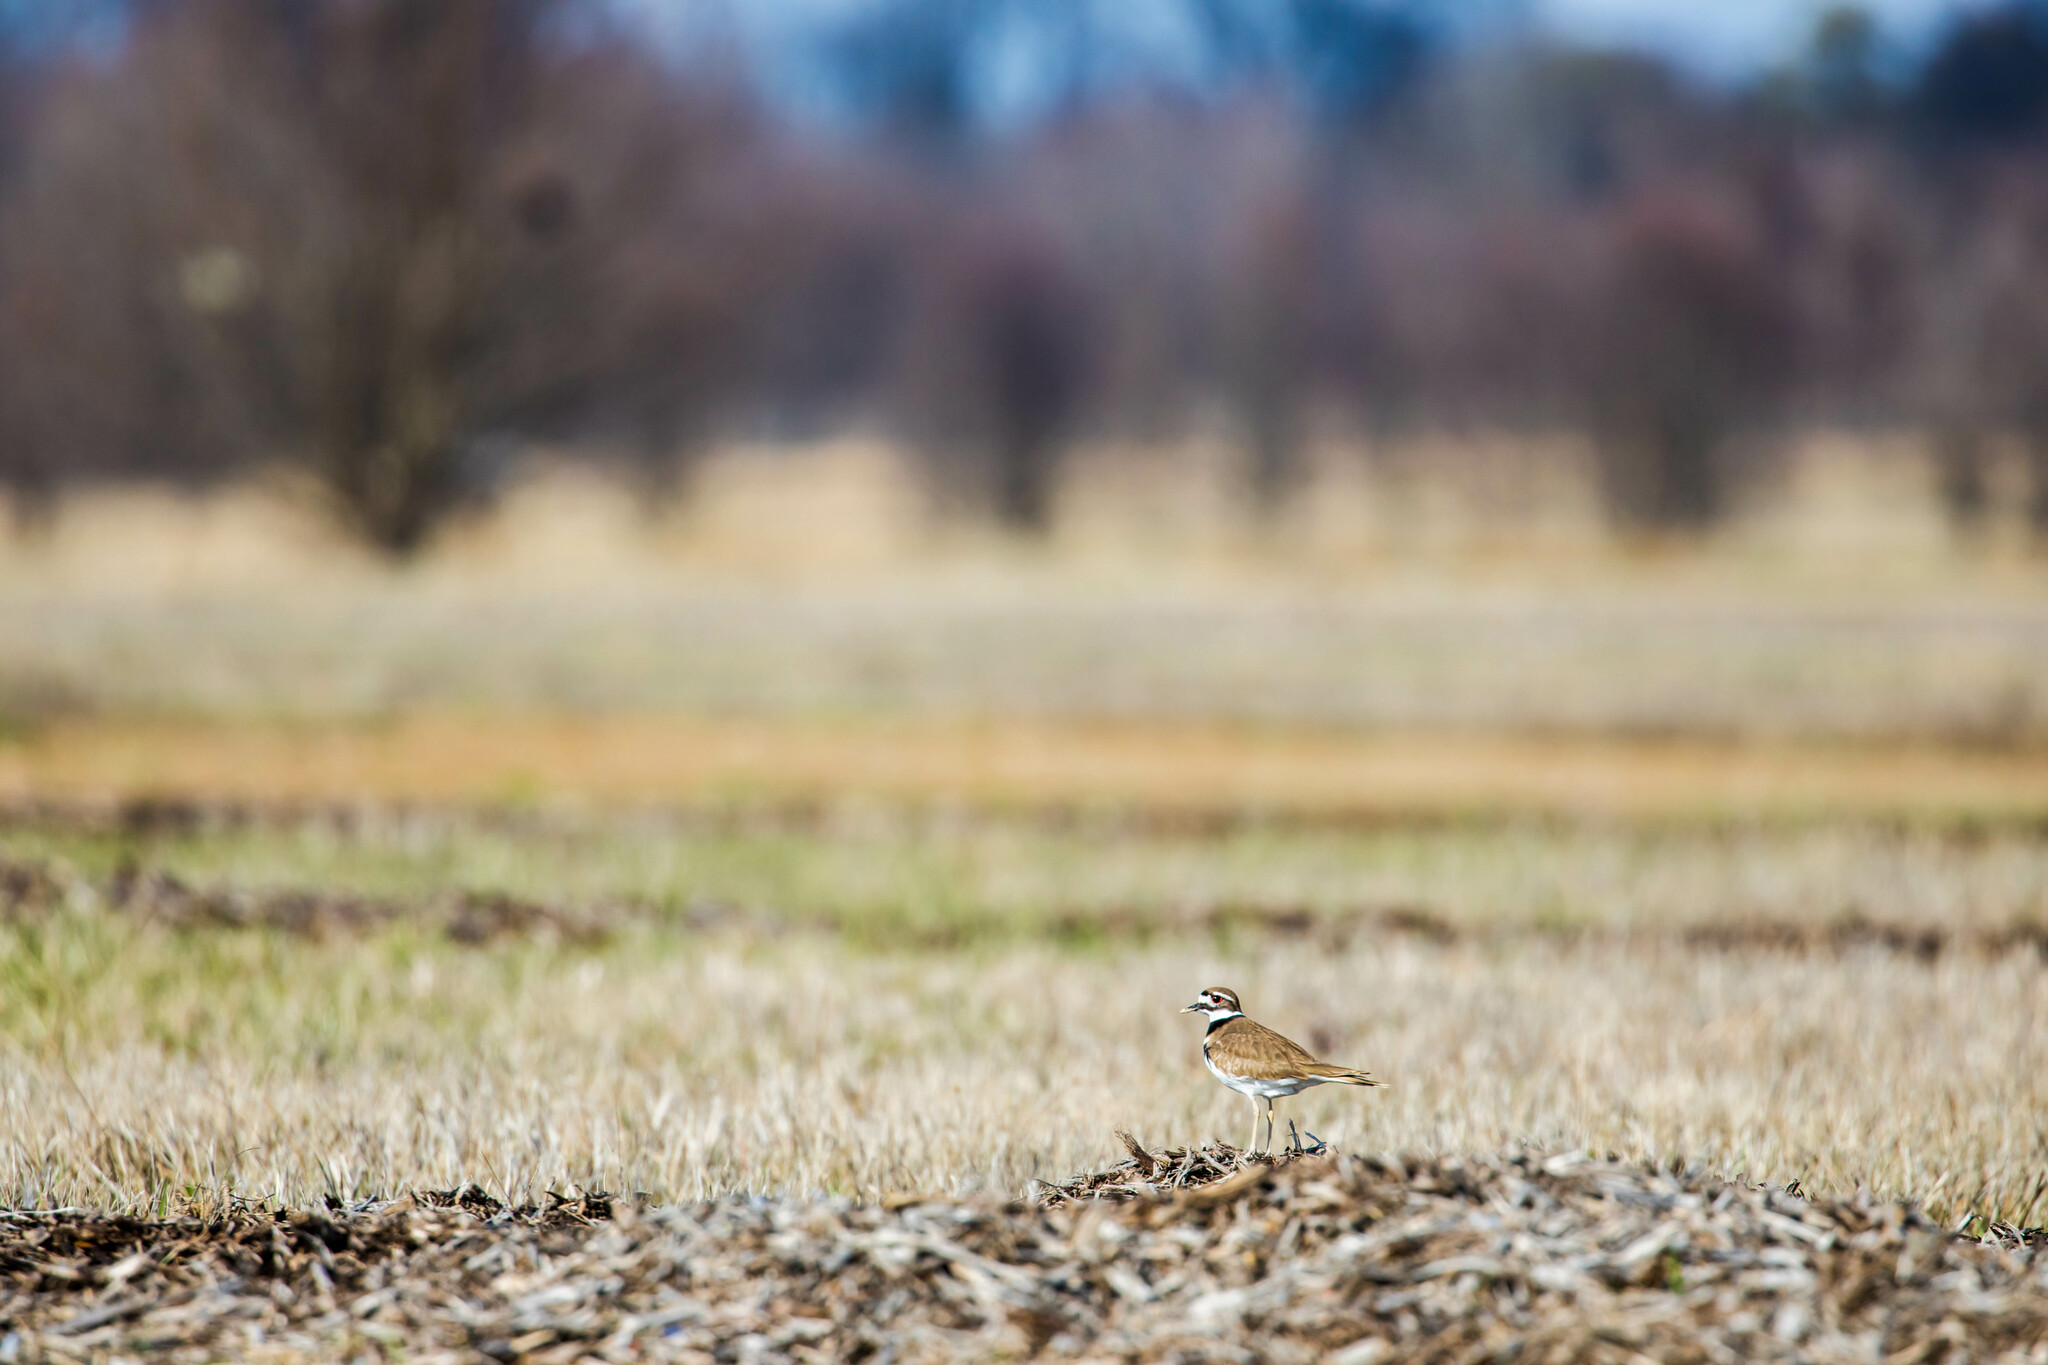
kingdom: Animalia
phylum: Chordata
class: Aves
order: Charadriiformes
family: Charadriidae
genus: Charadrius
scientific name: Charadrius vociferus
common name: Killdeer
